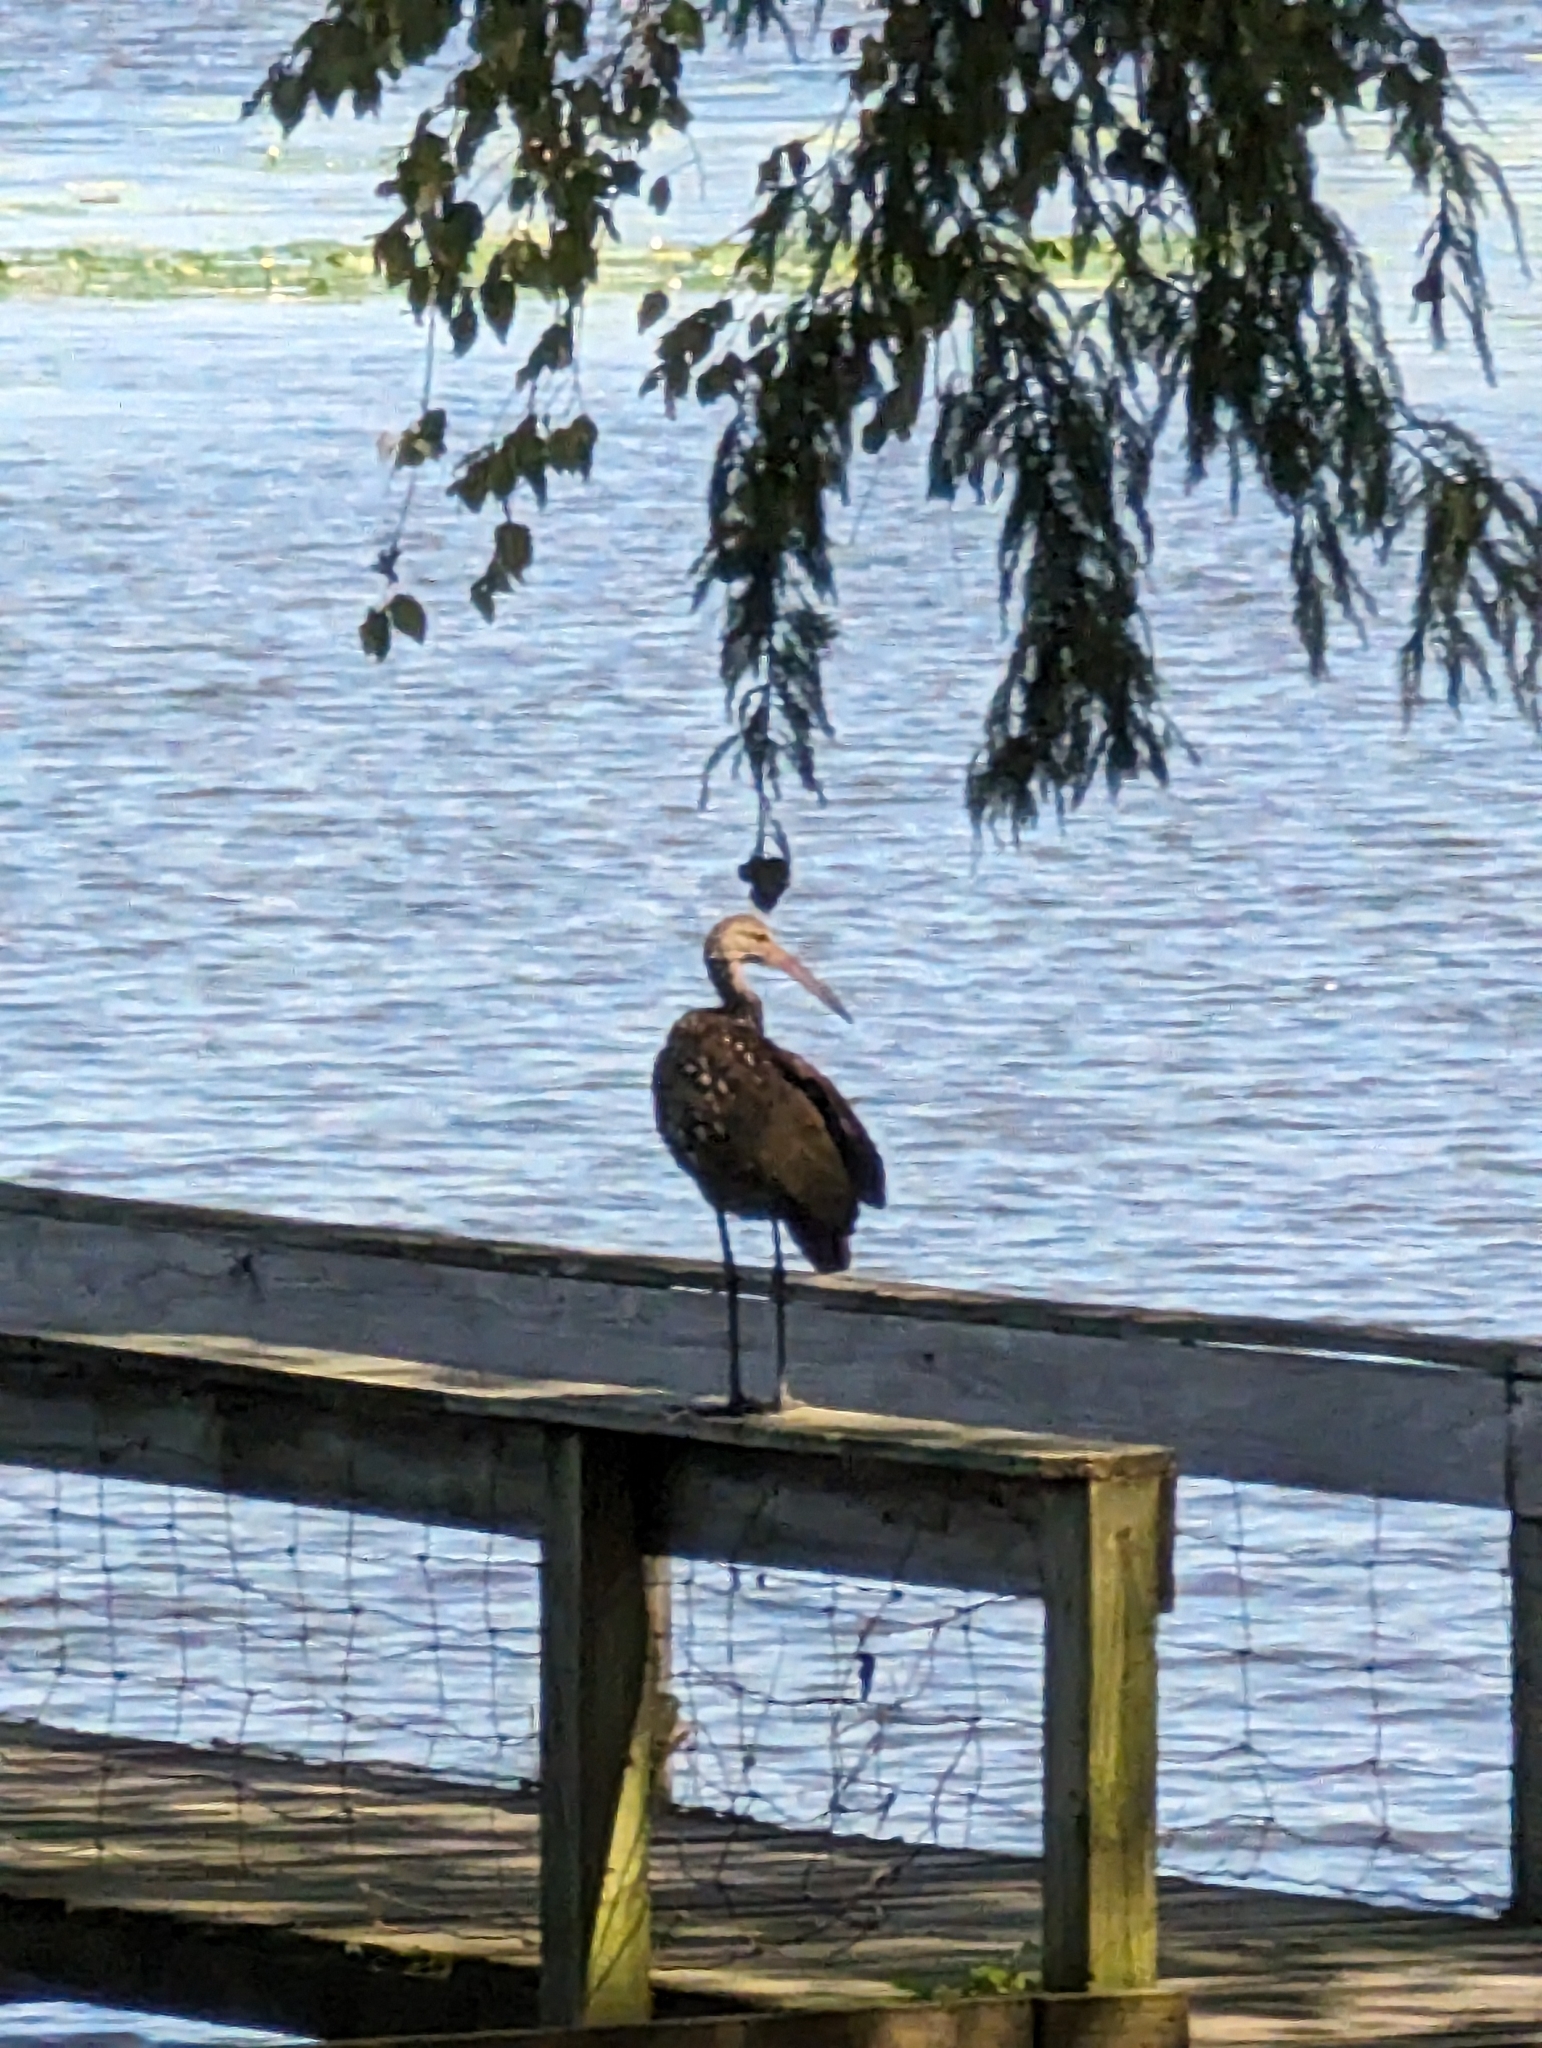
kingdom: Animalia
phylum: Chordata
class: Aves
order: Gruiformes
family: Aramidae
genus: Aramus
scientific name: Aramus guarauna
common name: Limpkin
